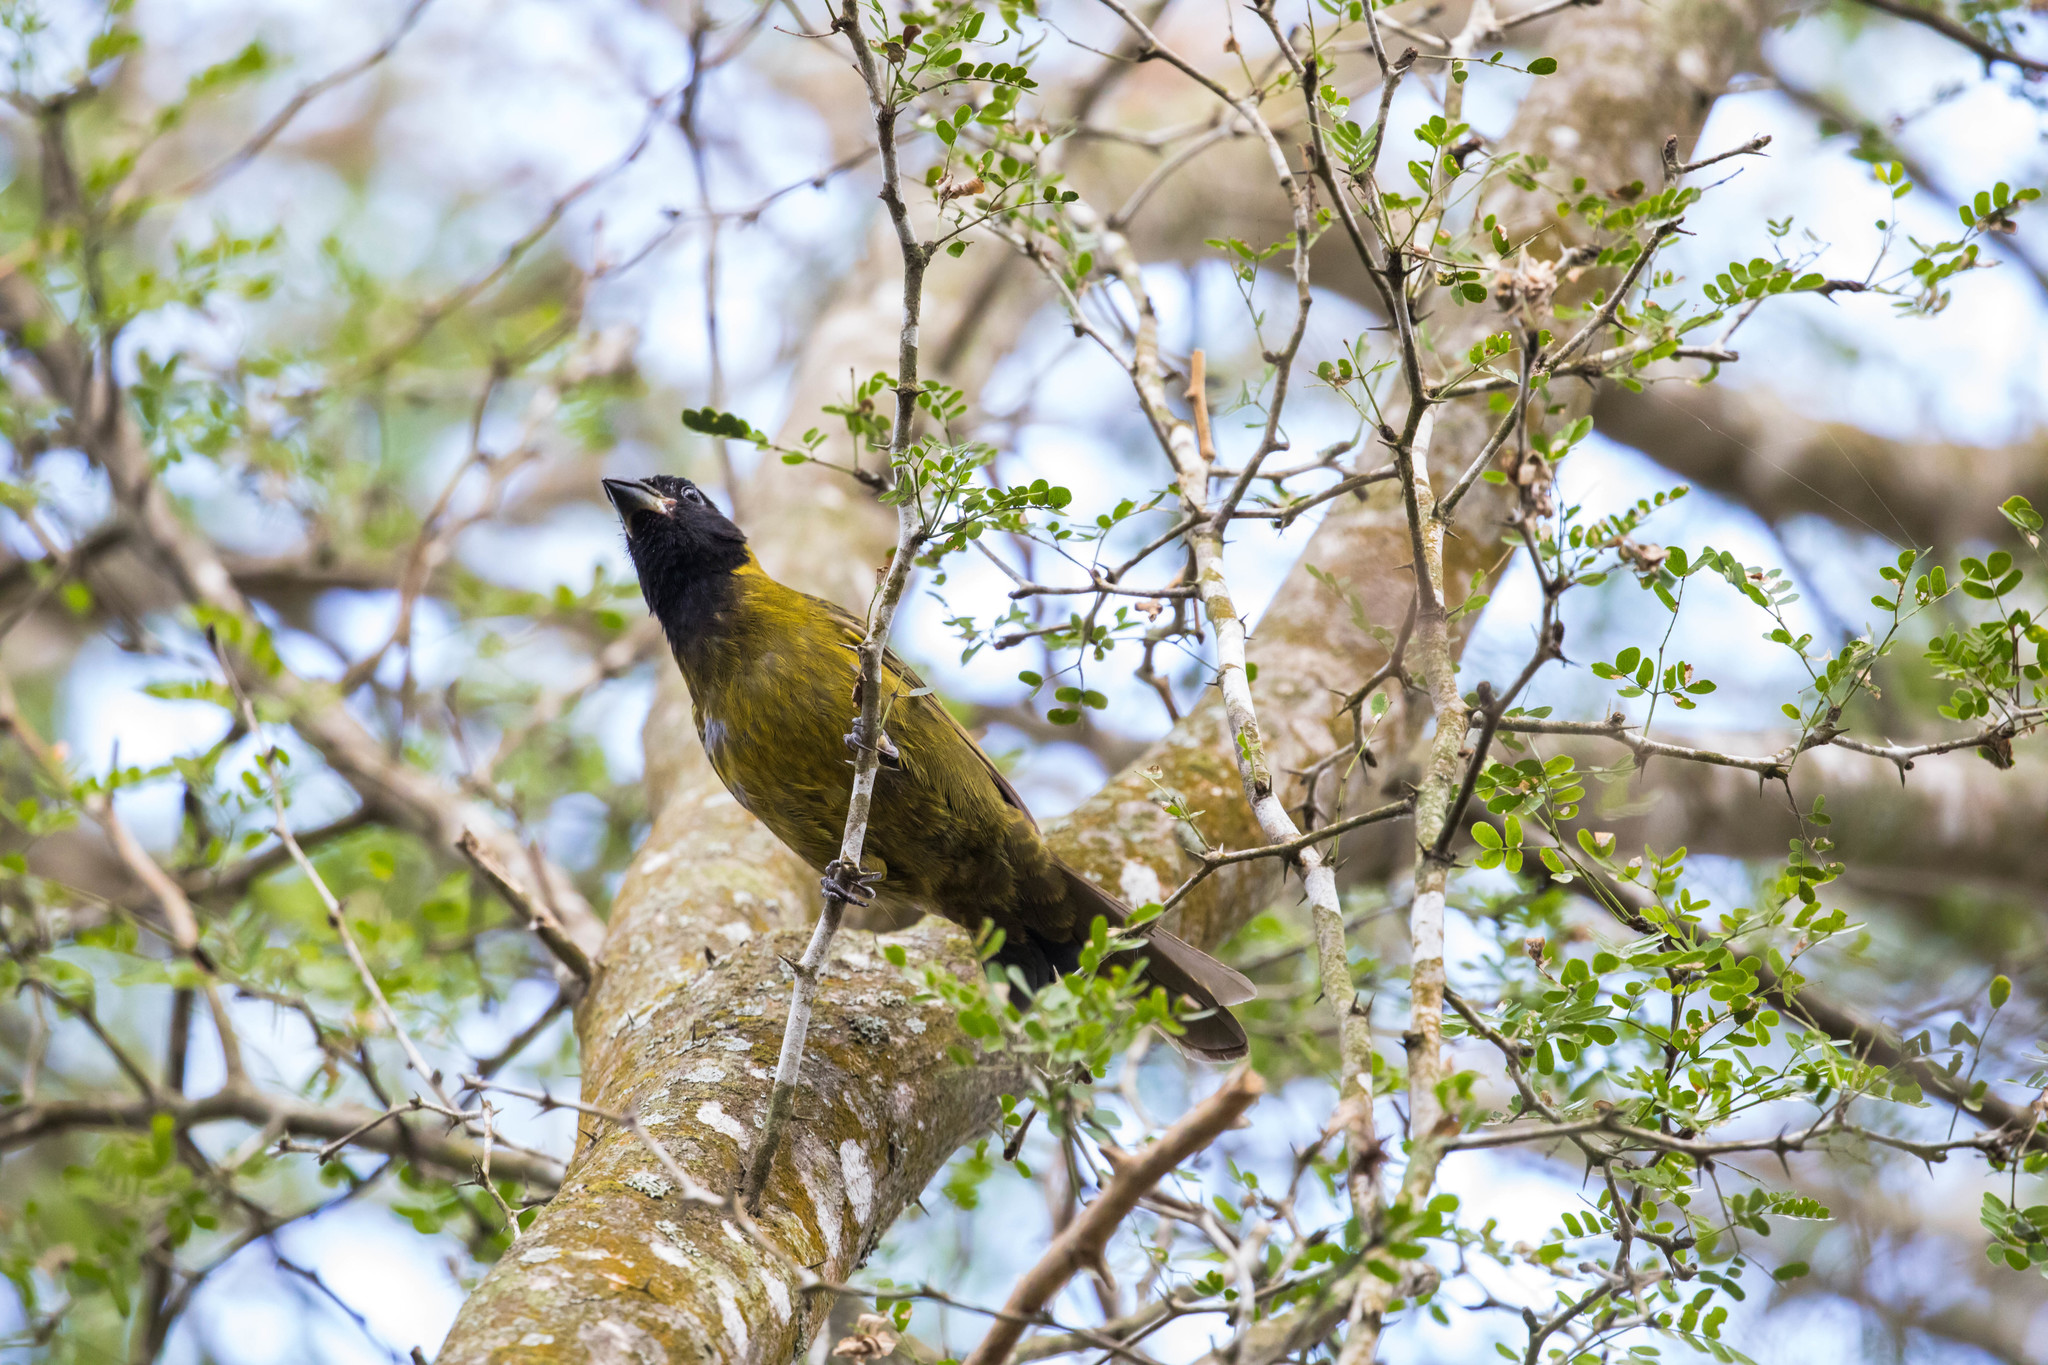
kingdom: Animalia
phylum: Chordata
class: Aves
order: Passeriformes
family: Cardinalidae
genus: Rhodothraupis
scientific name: Rhodothraupis celaeno
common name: Crimson-collared grosbeak
